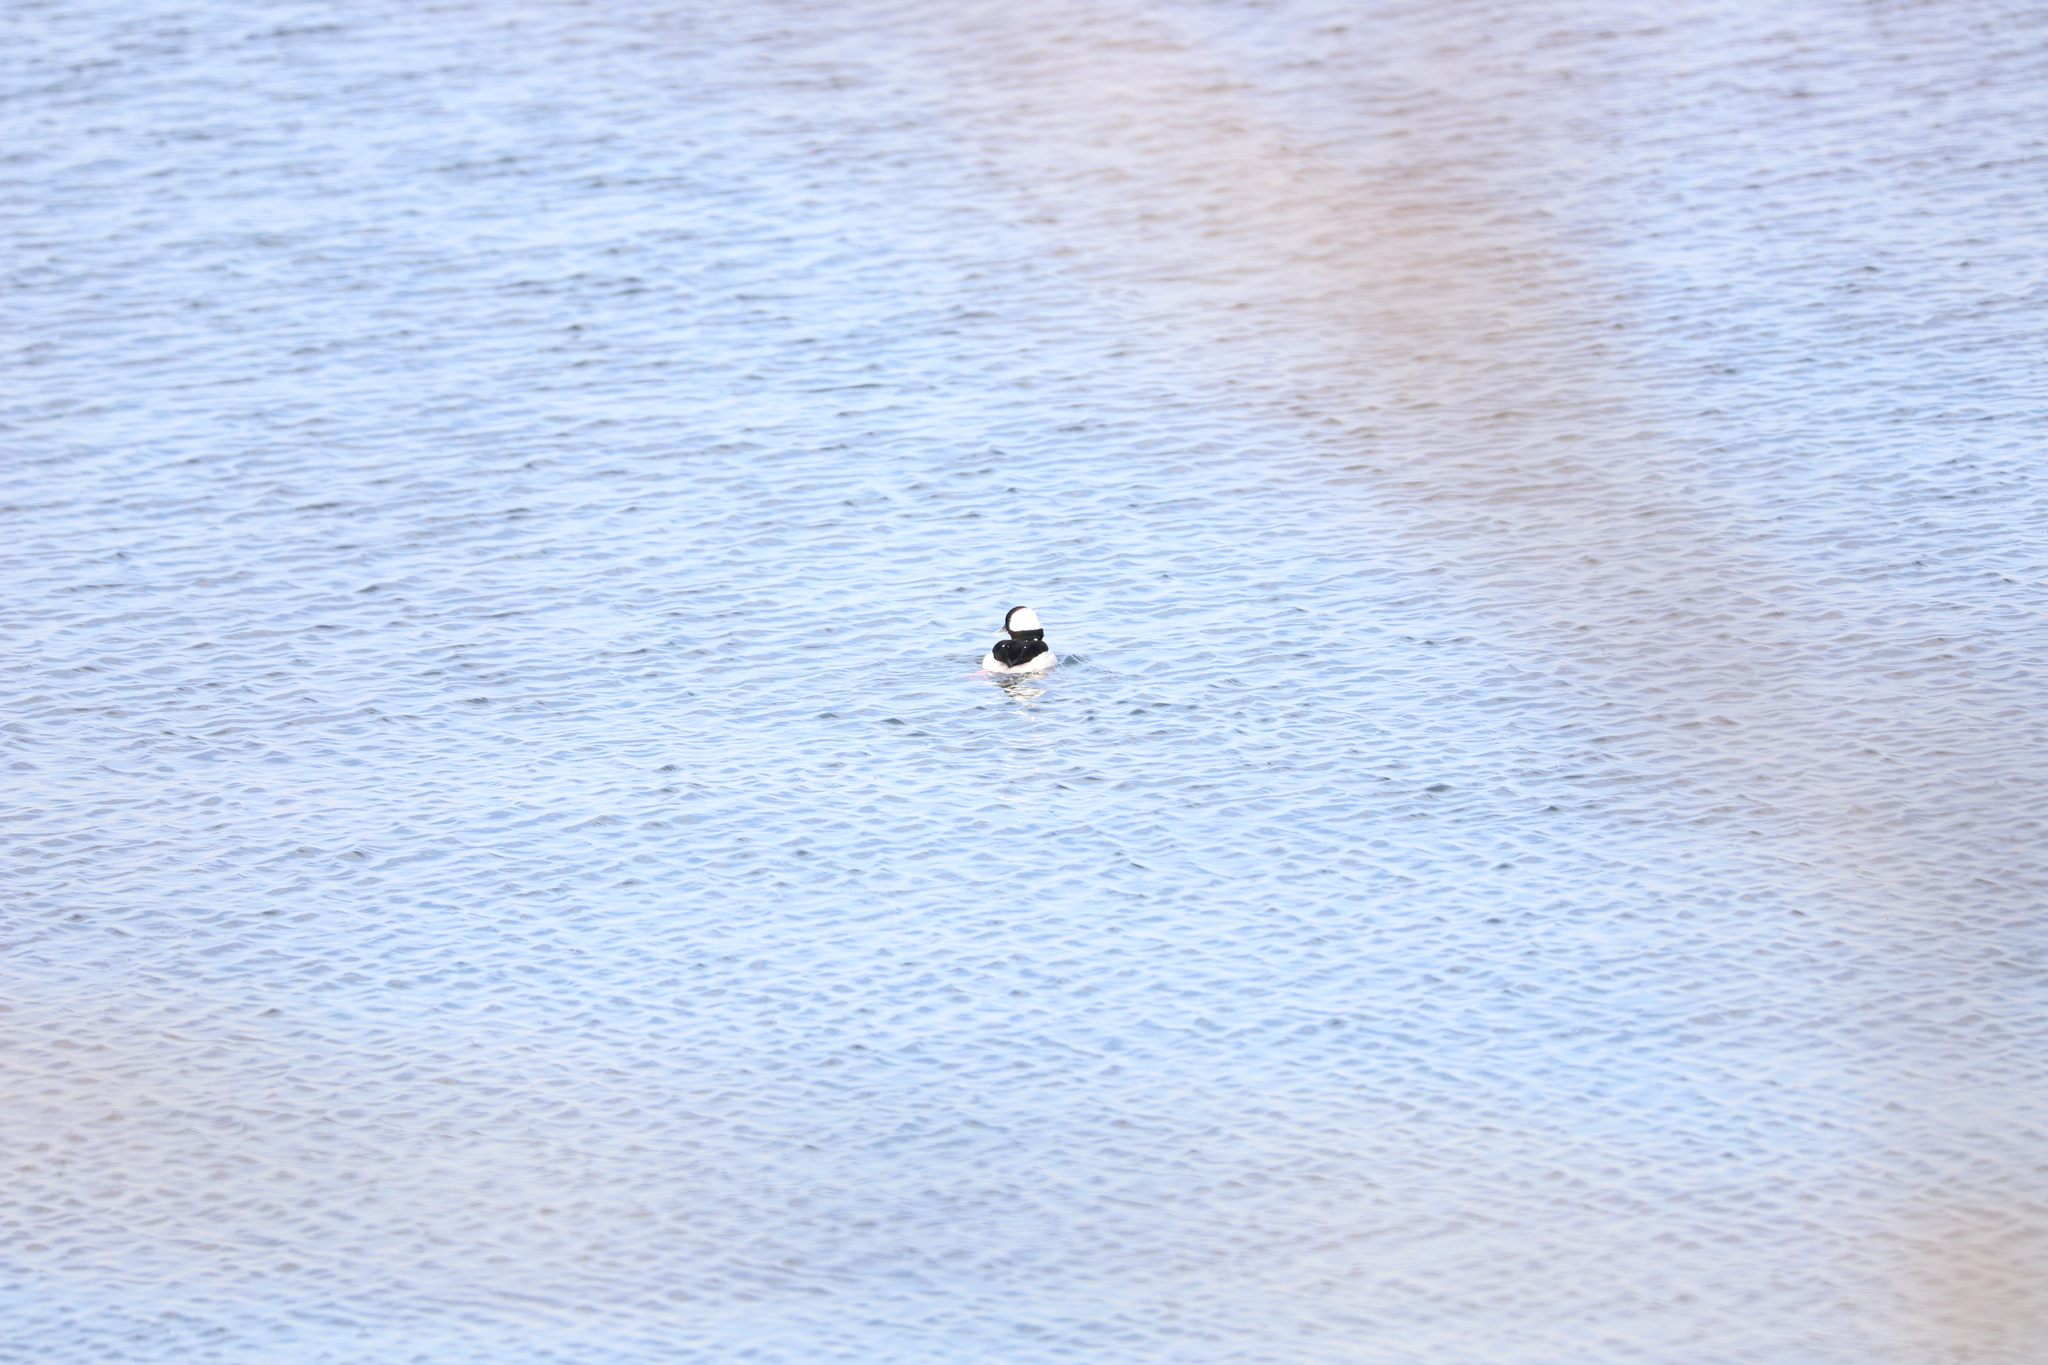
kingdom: Animalia
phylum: Chordata
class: Aves
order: Anseriformes
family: Anatidae
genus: Bucephala
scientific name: Bucephala albeola
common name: Bufflehead
